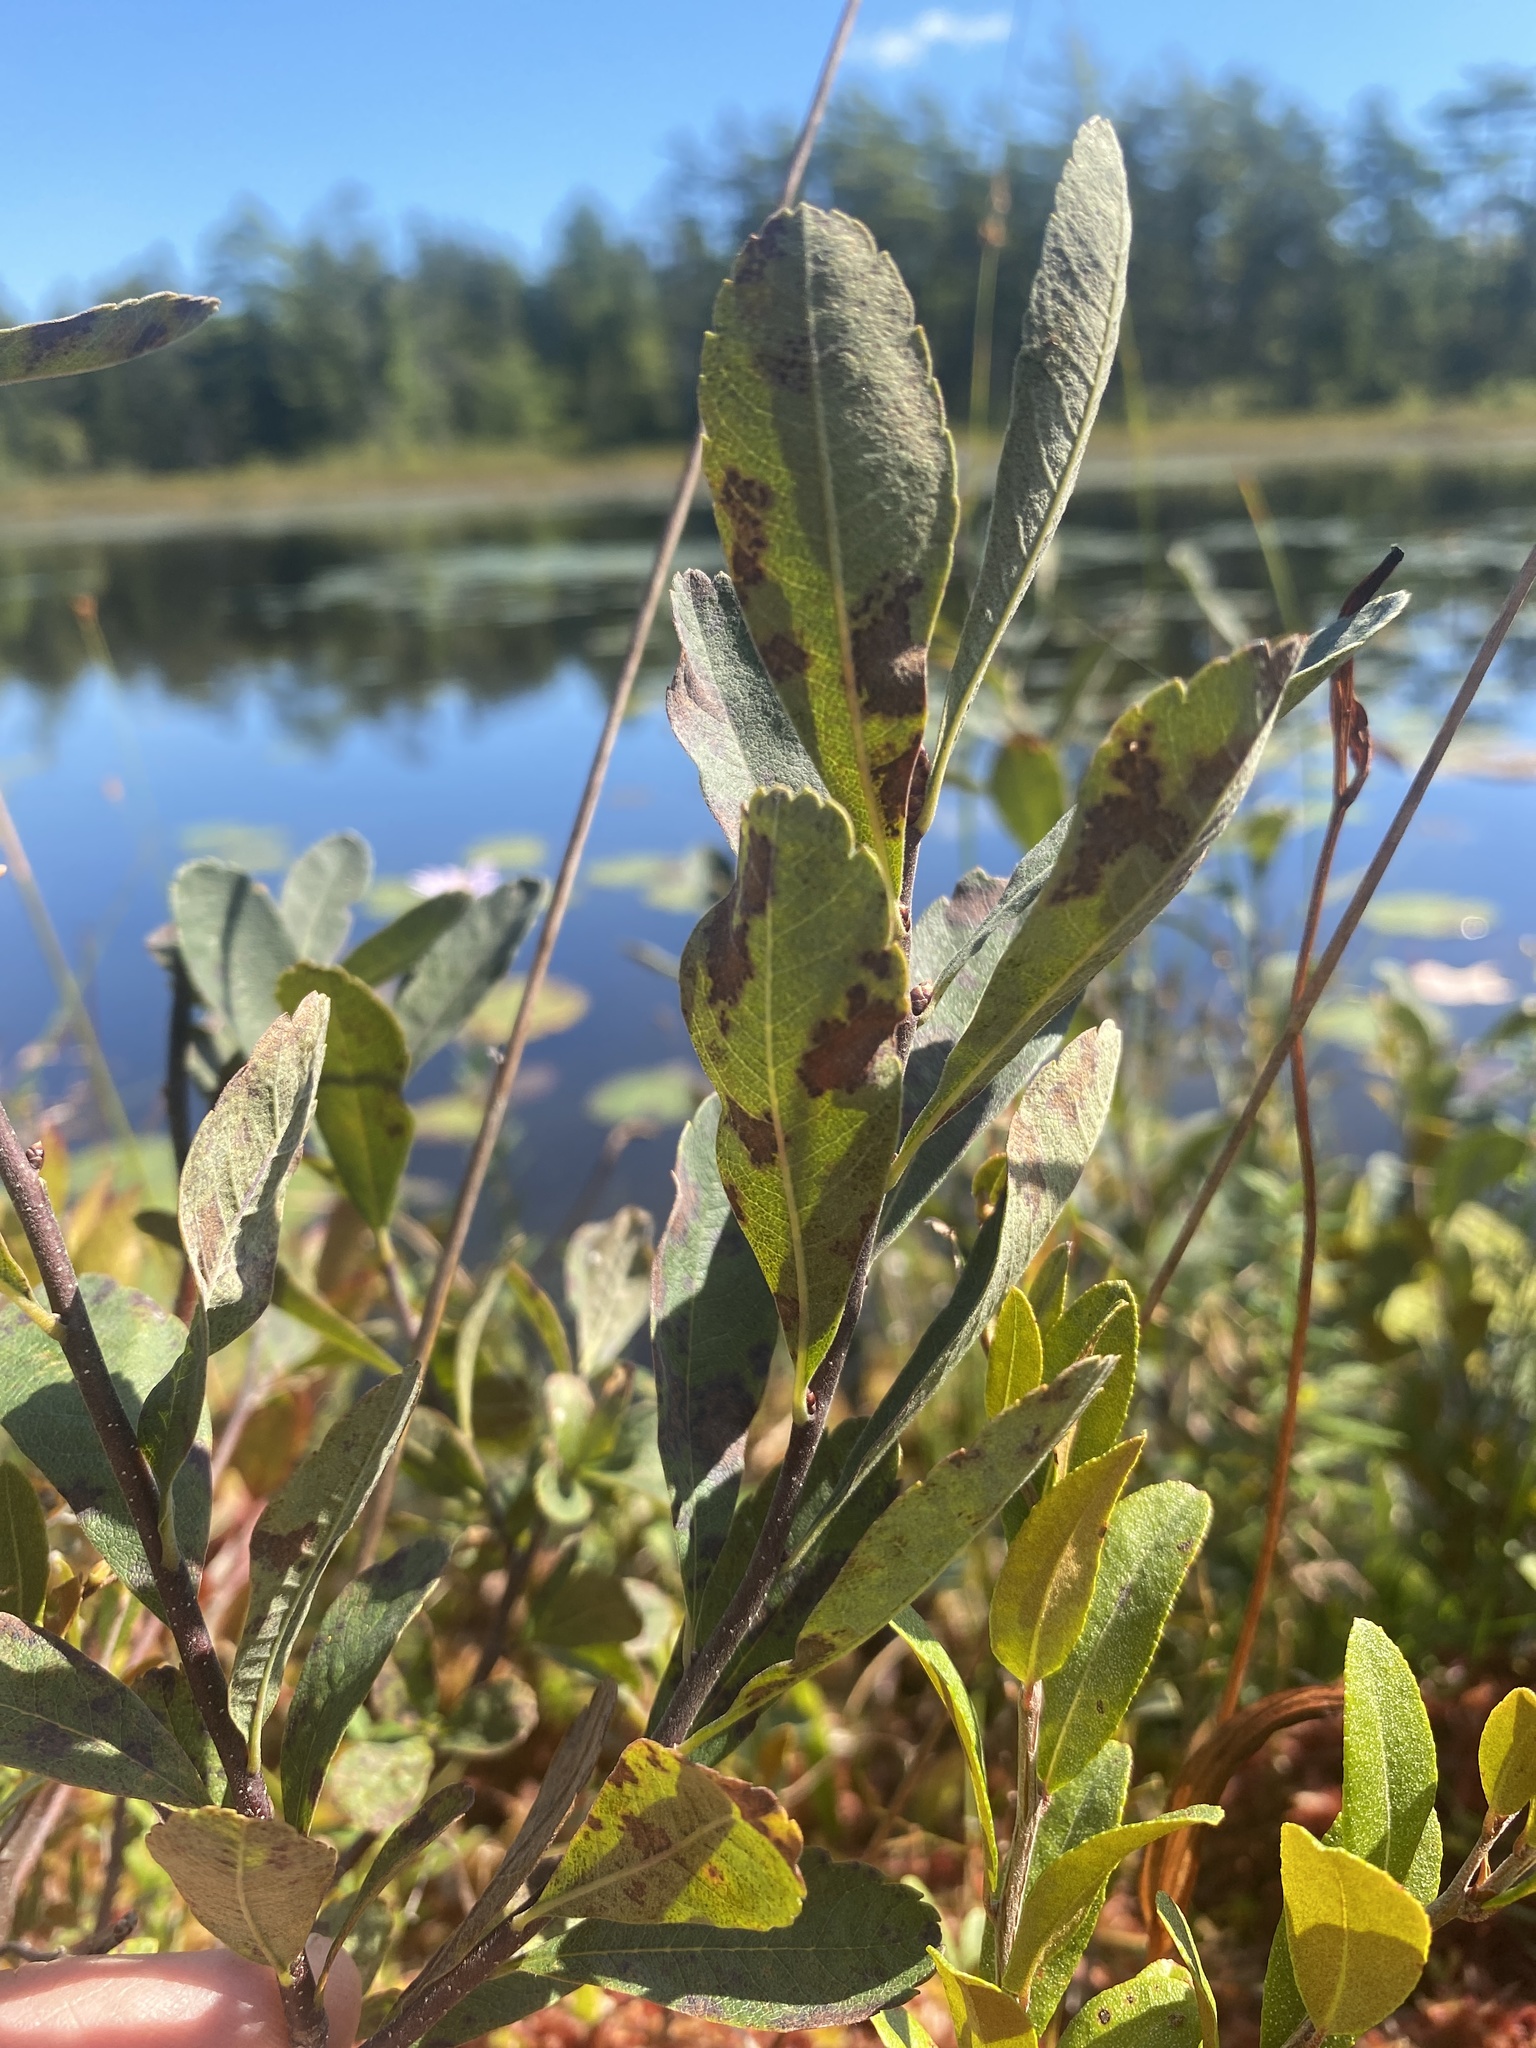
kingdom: Plantae
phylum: Tracheophyta
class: Magnoliopsida
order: Fagales
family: Myricaceae
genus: Myrica
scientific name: Myrica gale
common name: Sweet gale
